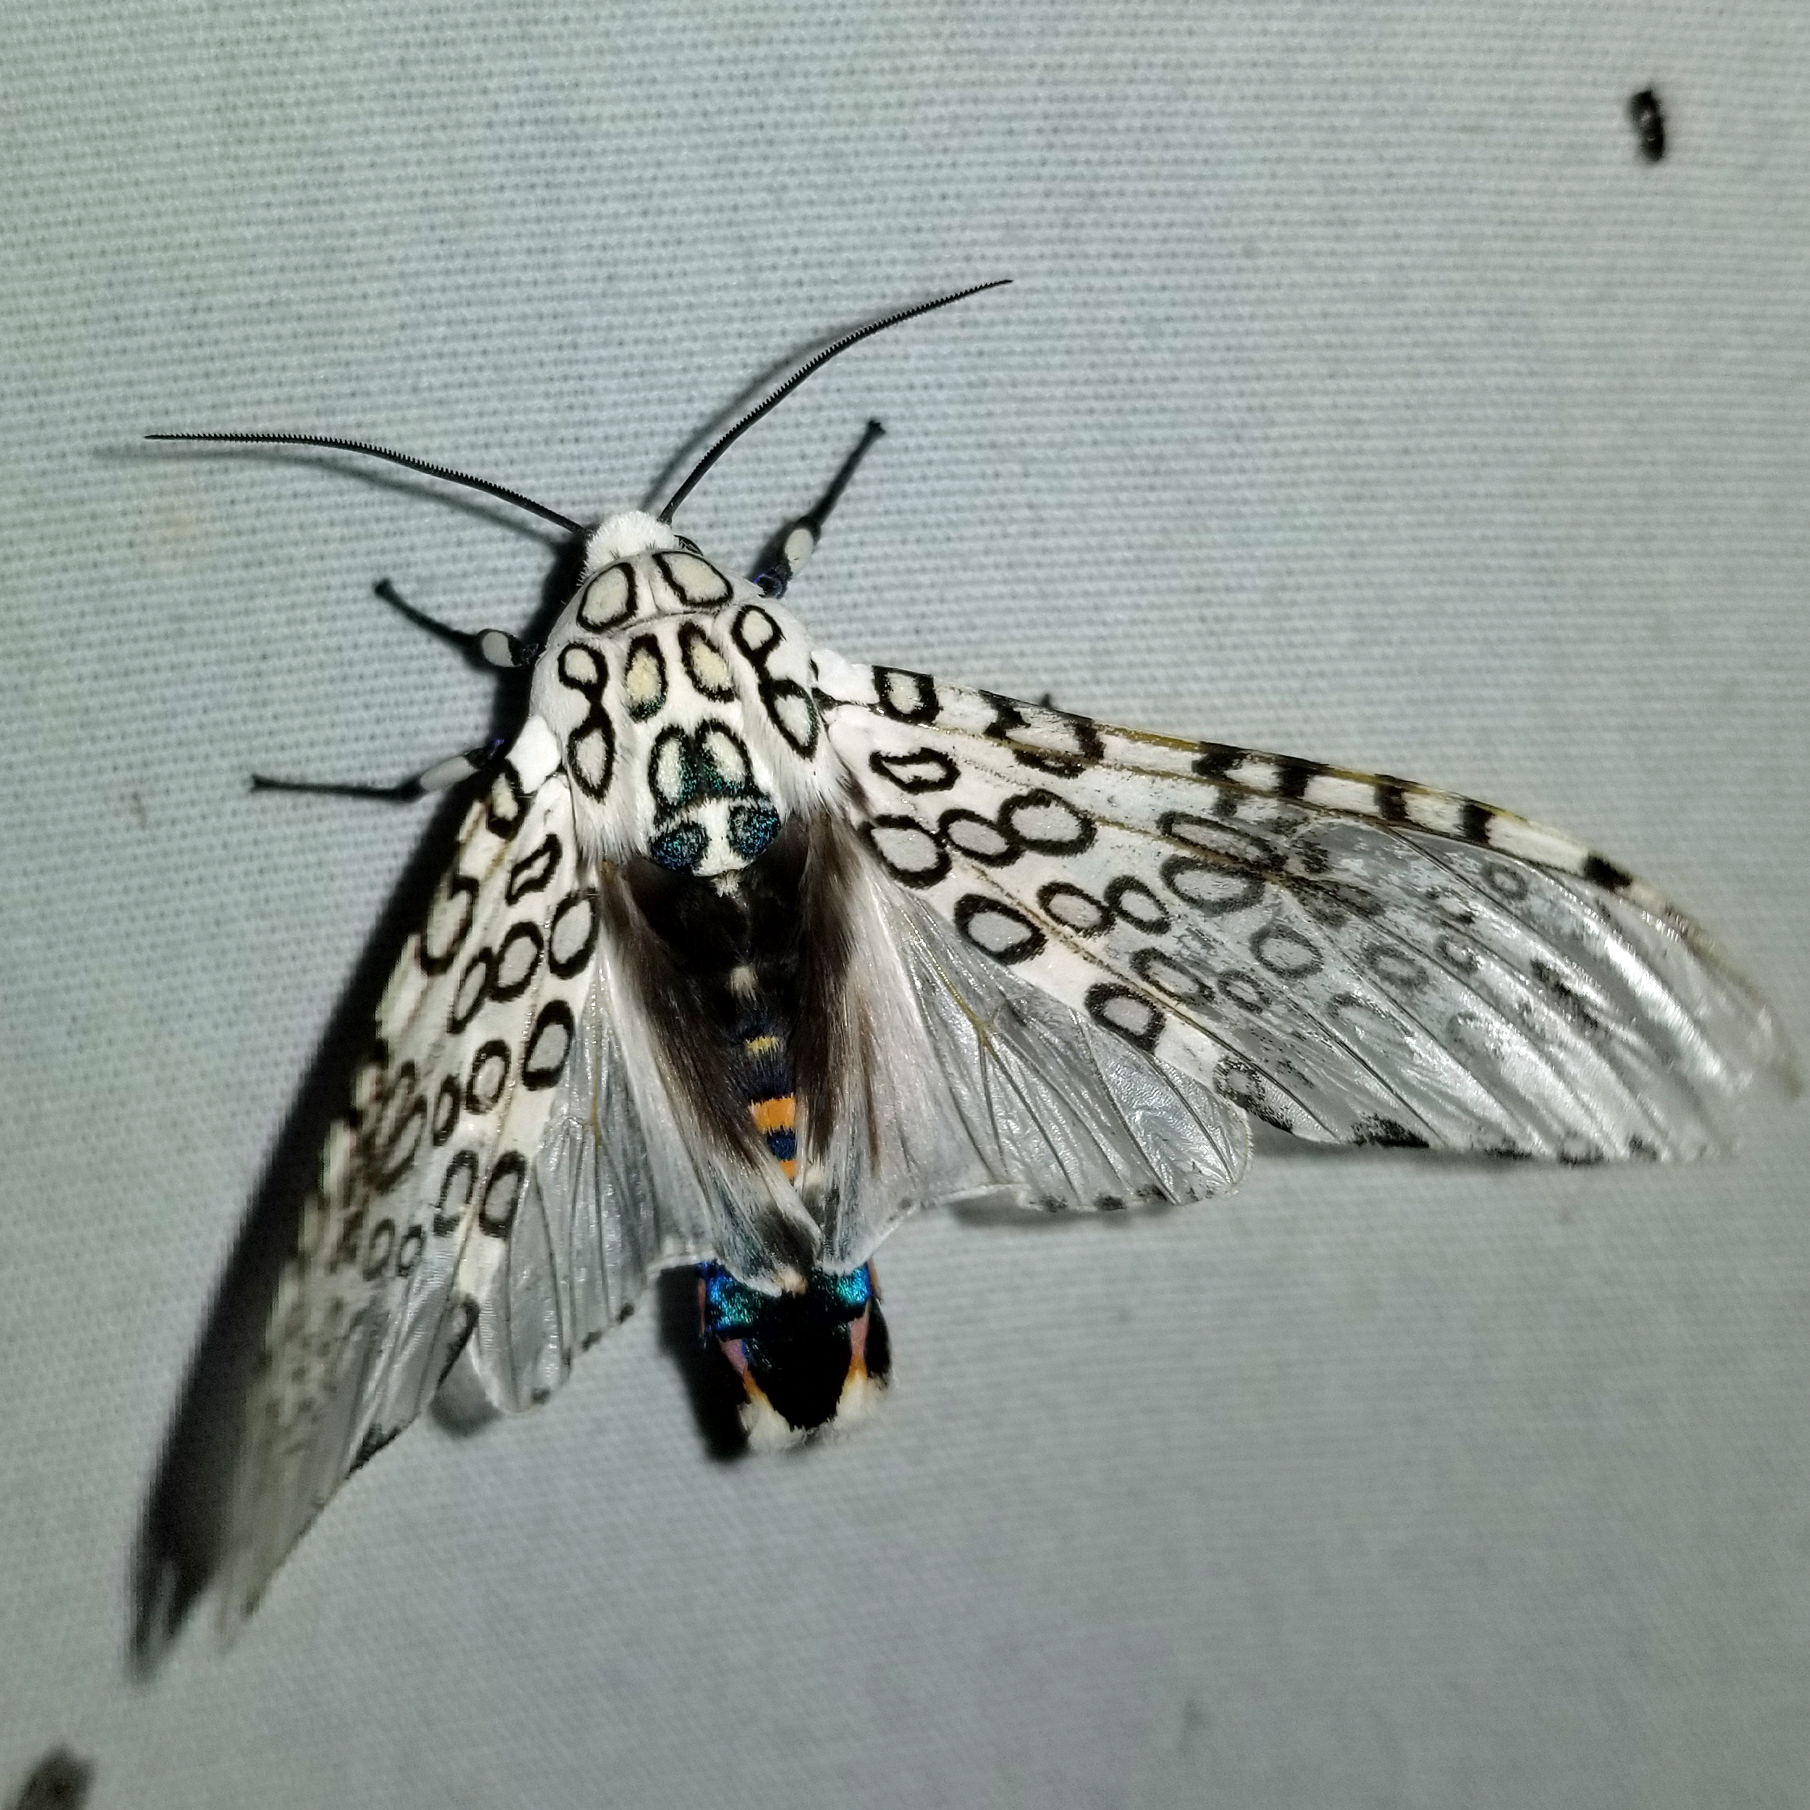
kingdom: Animalia
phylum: Arthropoda
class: Insecta
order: Lepidoptera
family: Erebidae
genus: Hypercompe
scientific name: Hypercompe scribonia
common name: Giant leopard moth
